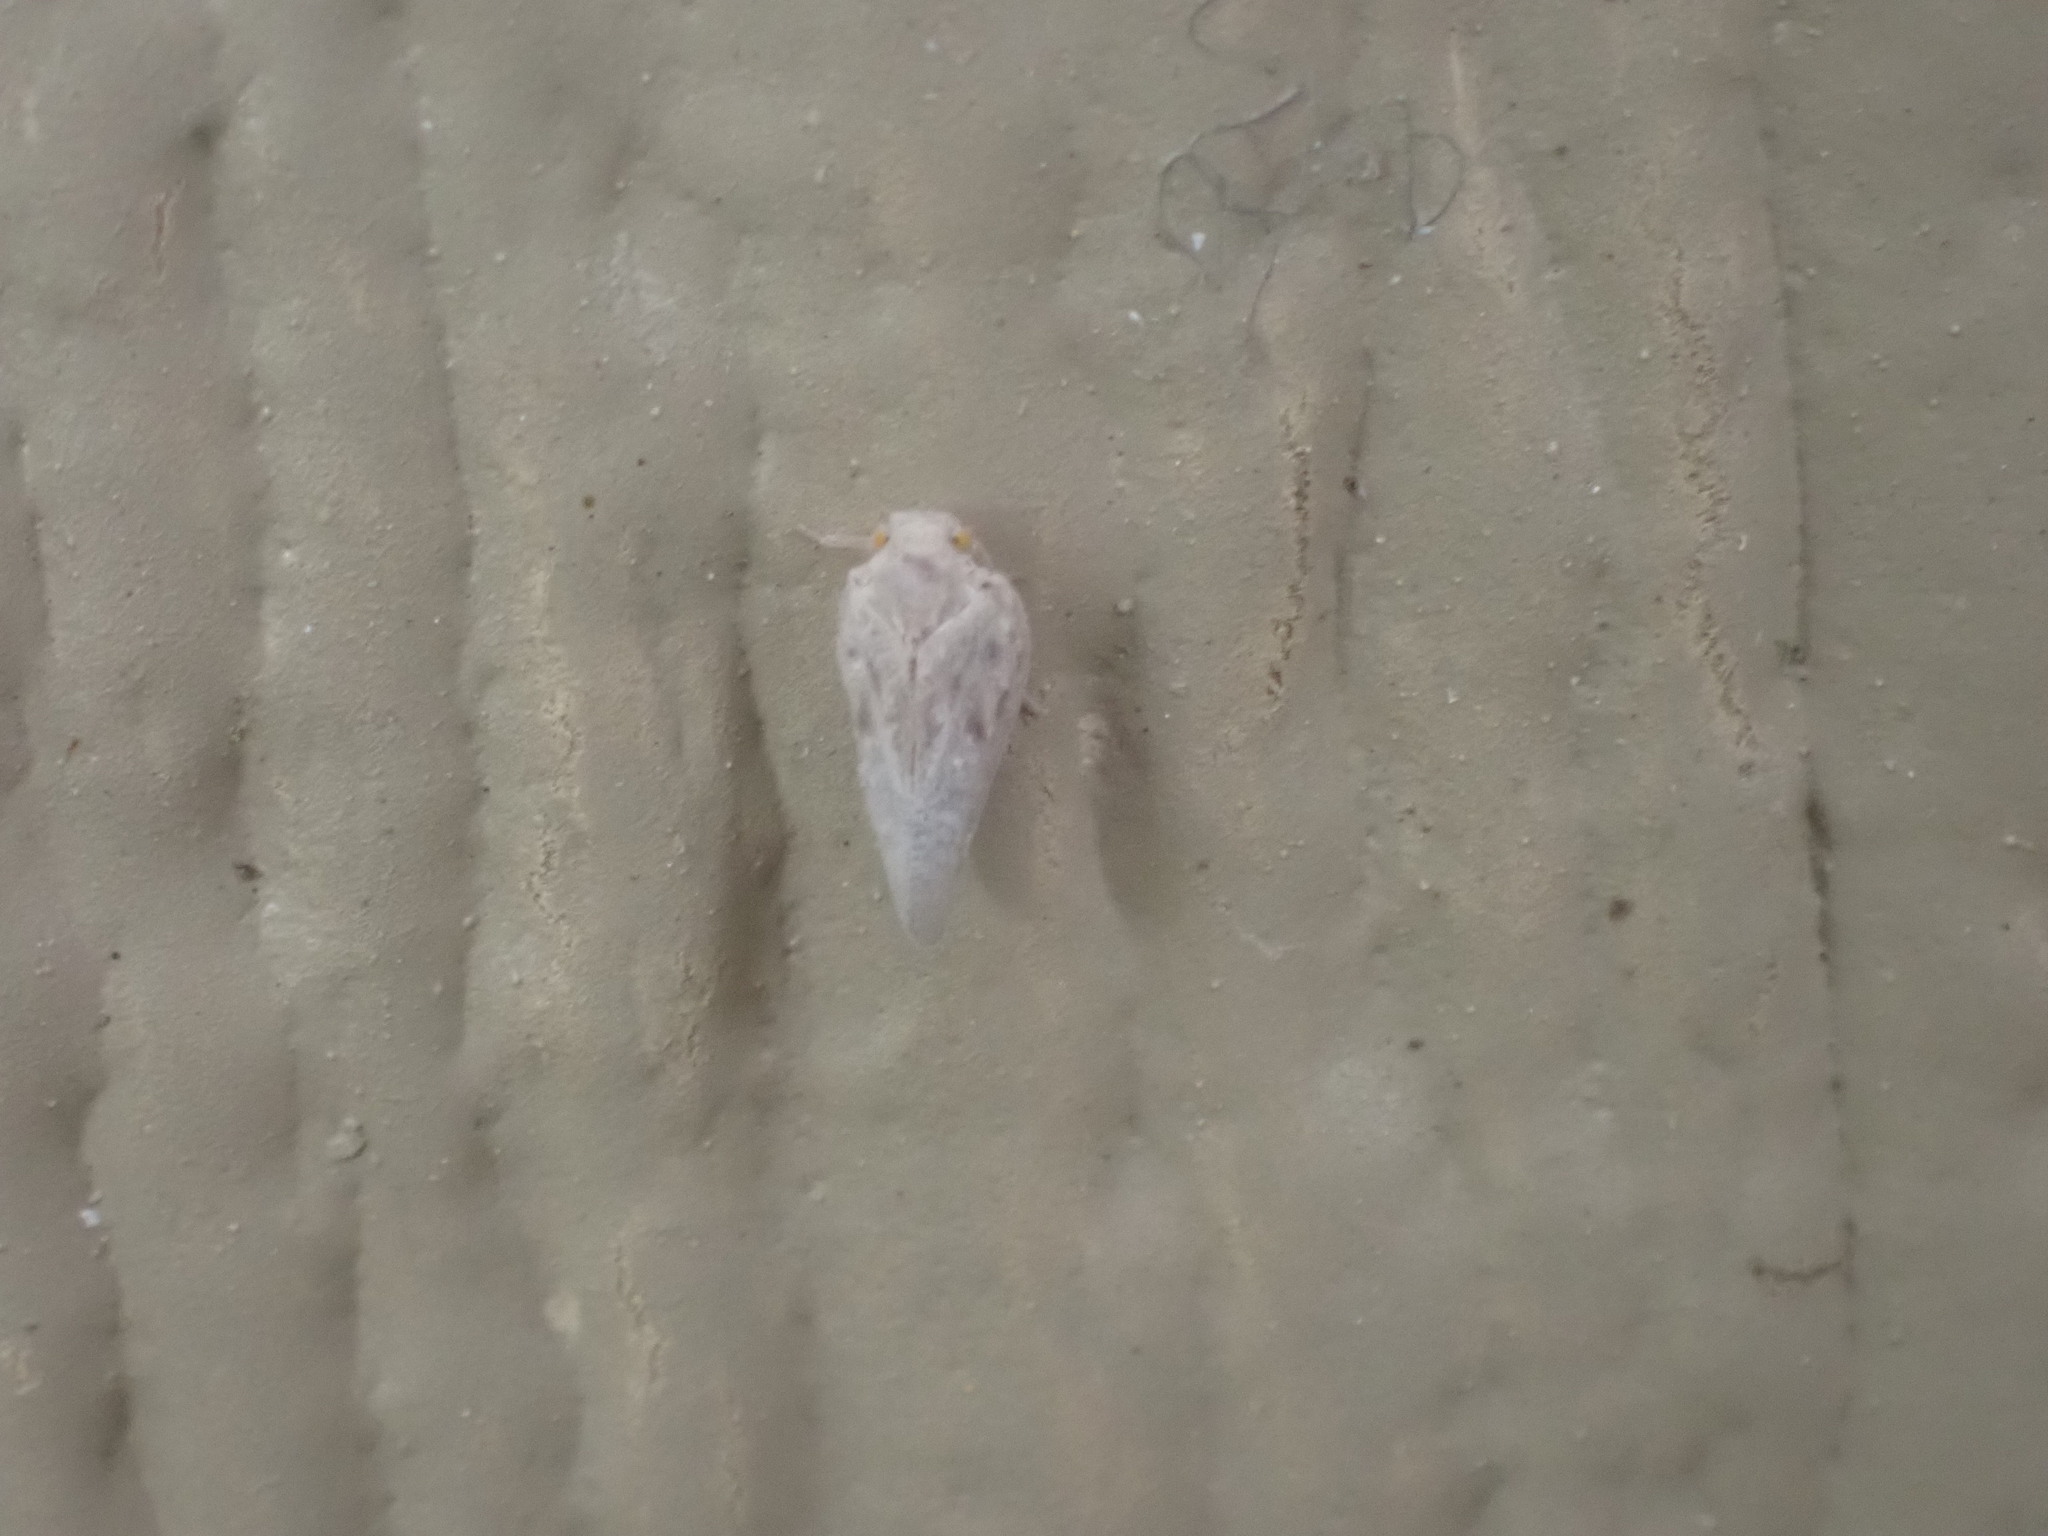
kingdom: Animalia
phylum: Arthropoda
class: Insecta
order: Hemiptera
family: Flatidae
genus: Metcalfa
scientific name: Metcalfa pruinosa
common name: Citrus flatid planthopper
